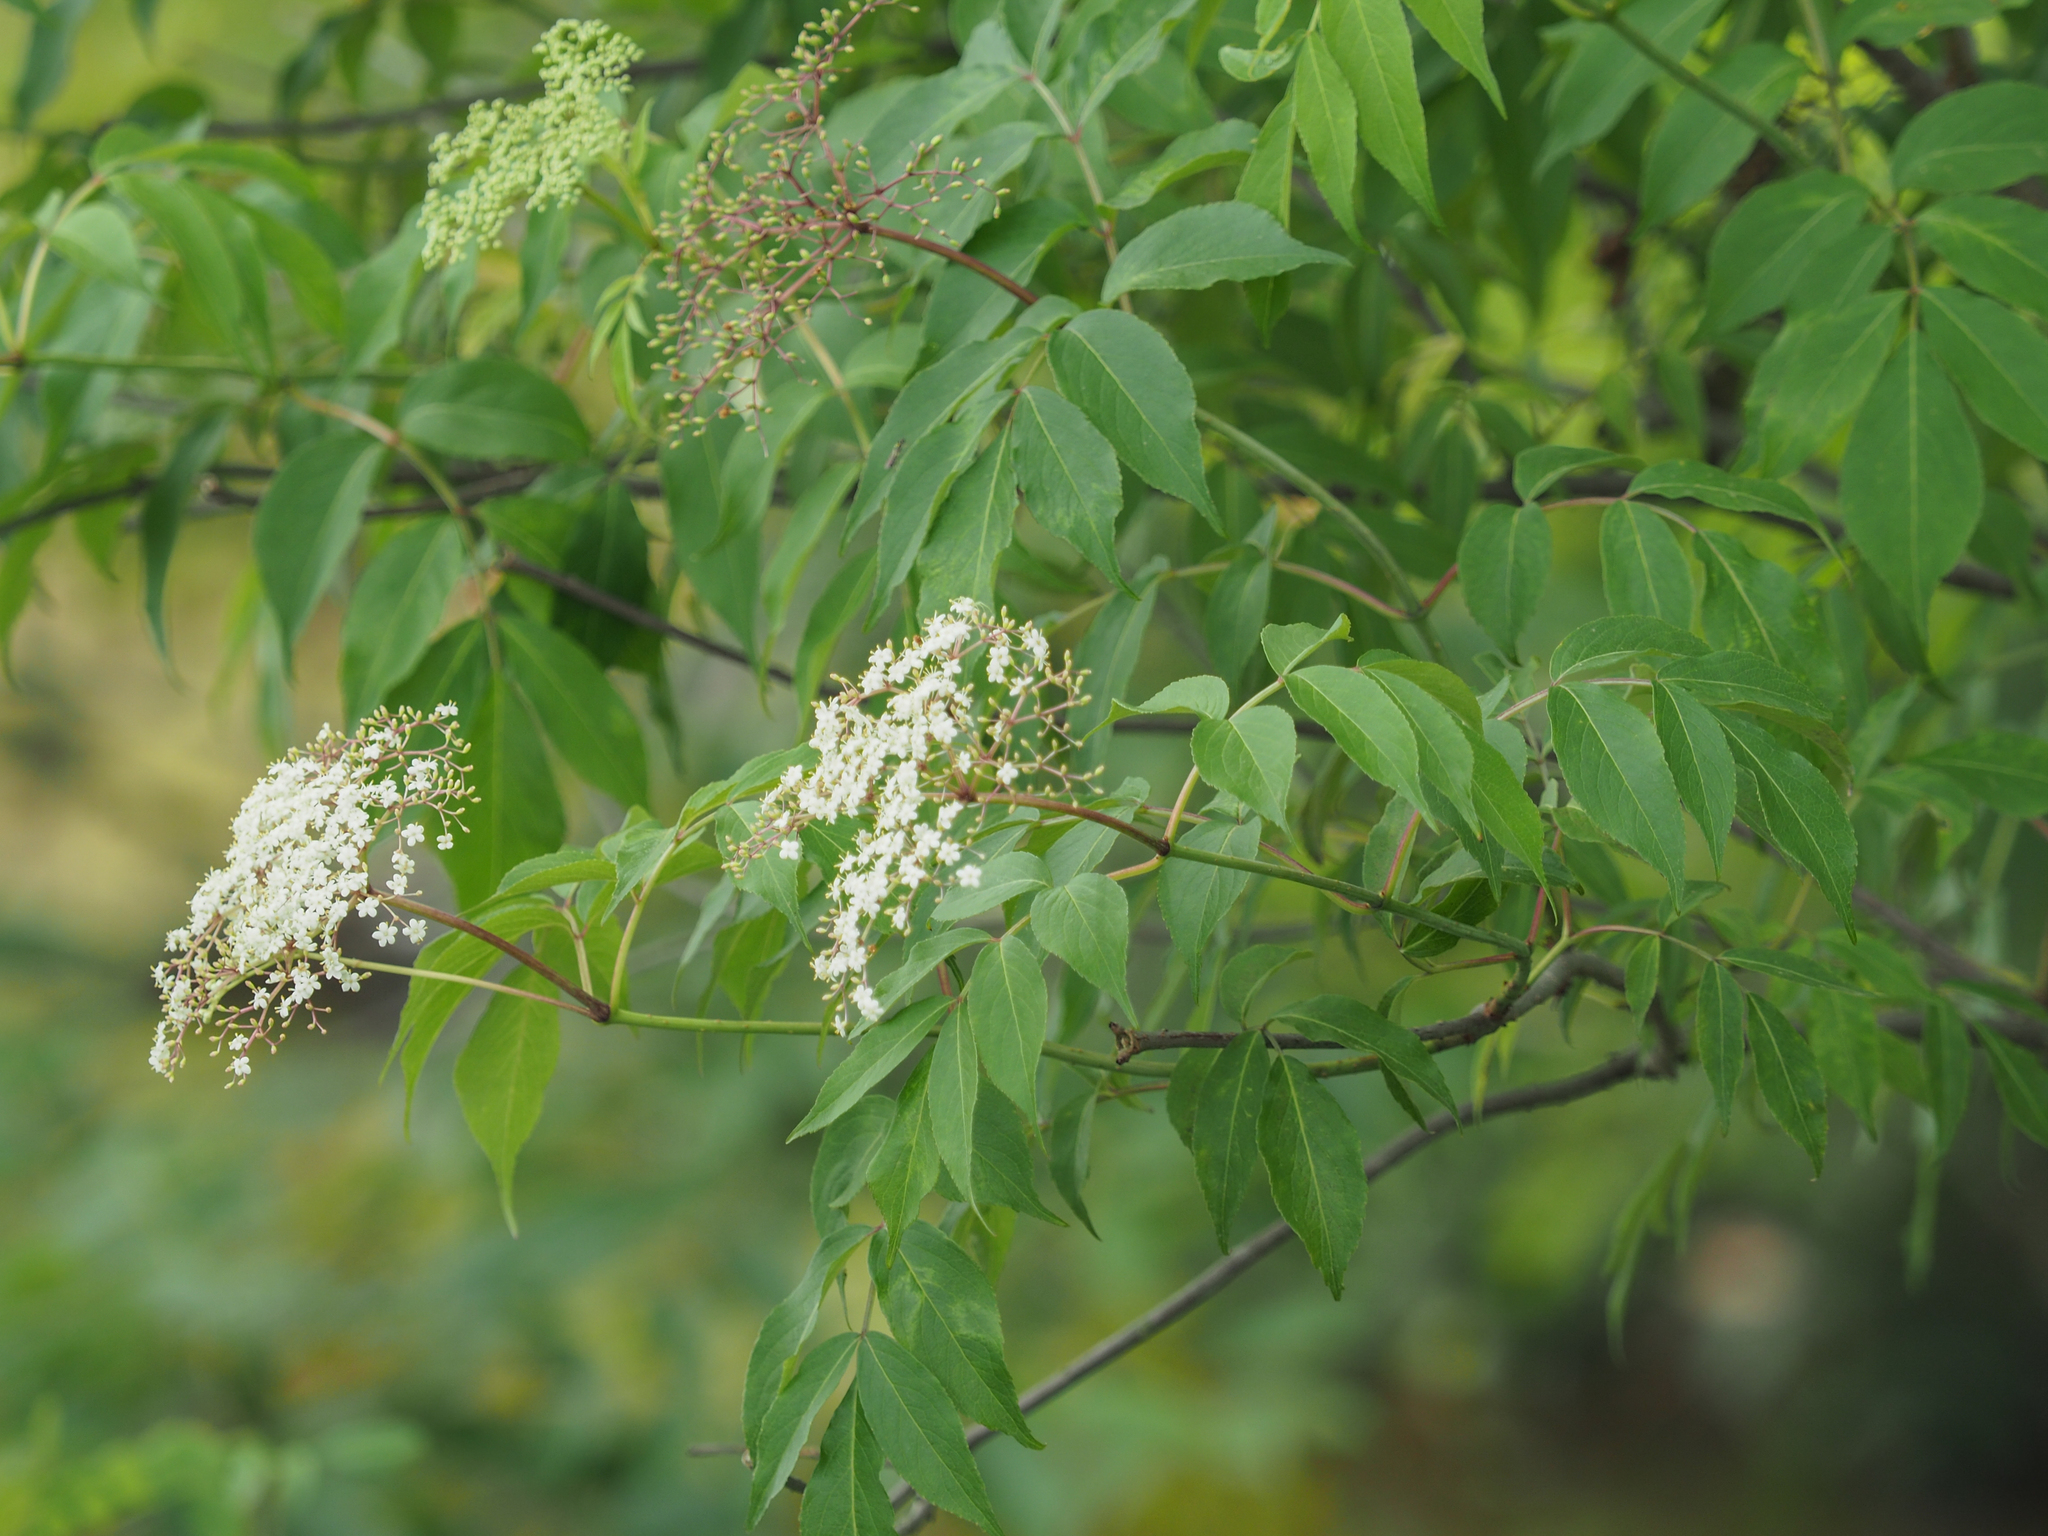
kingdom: Plantae
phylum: Tracheophyta
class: Magnoliopsida
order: Dipsacales
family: Viburnaceae
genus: Sambucus
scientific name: Sambucus canadensis
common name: American elder
